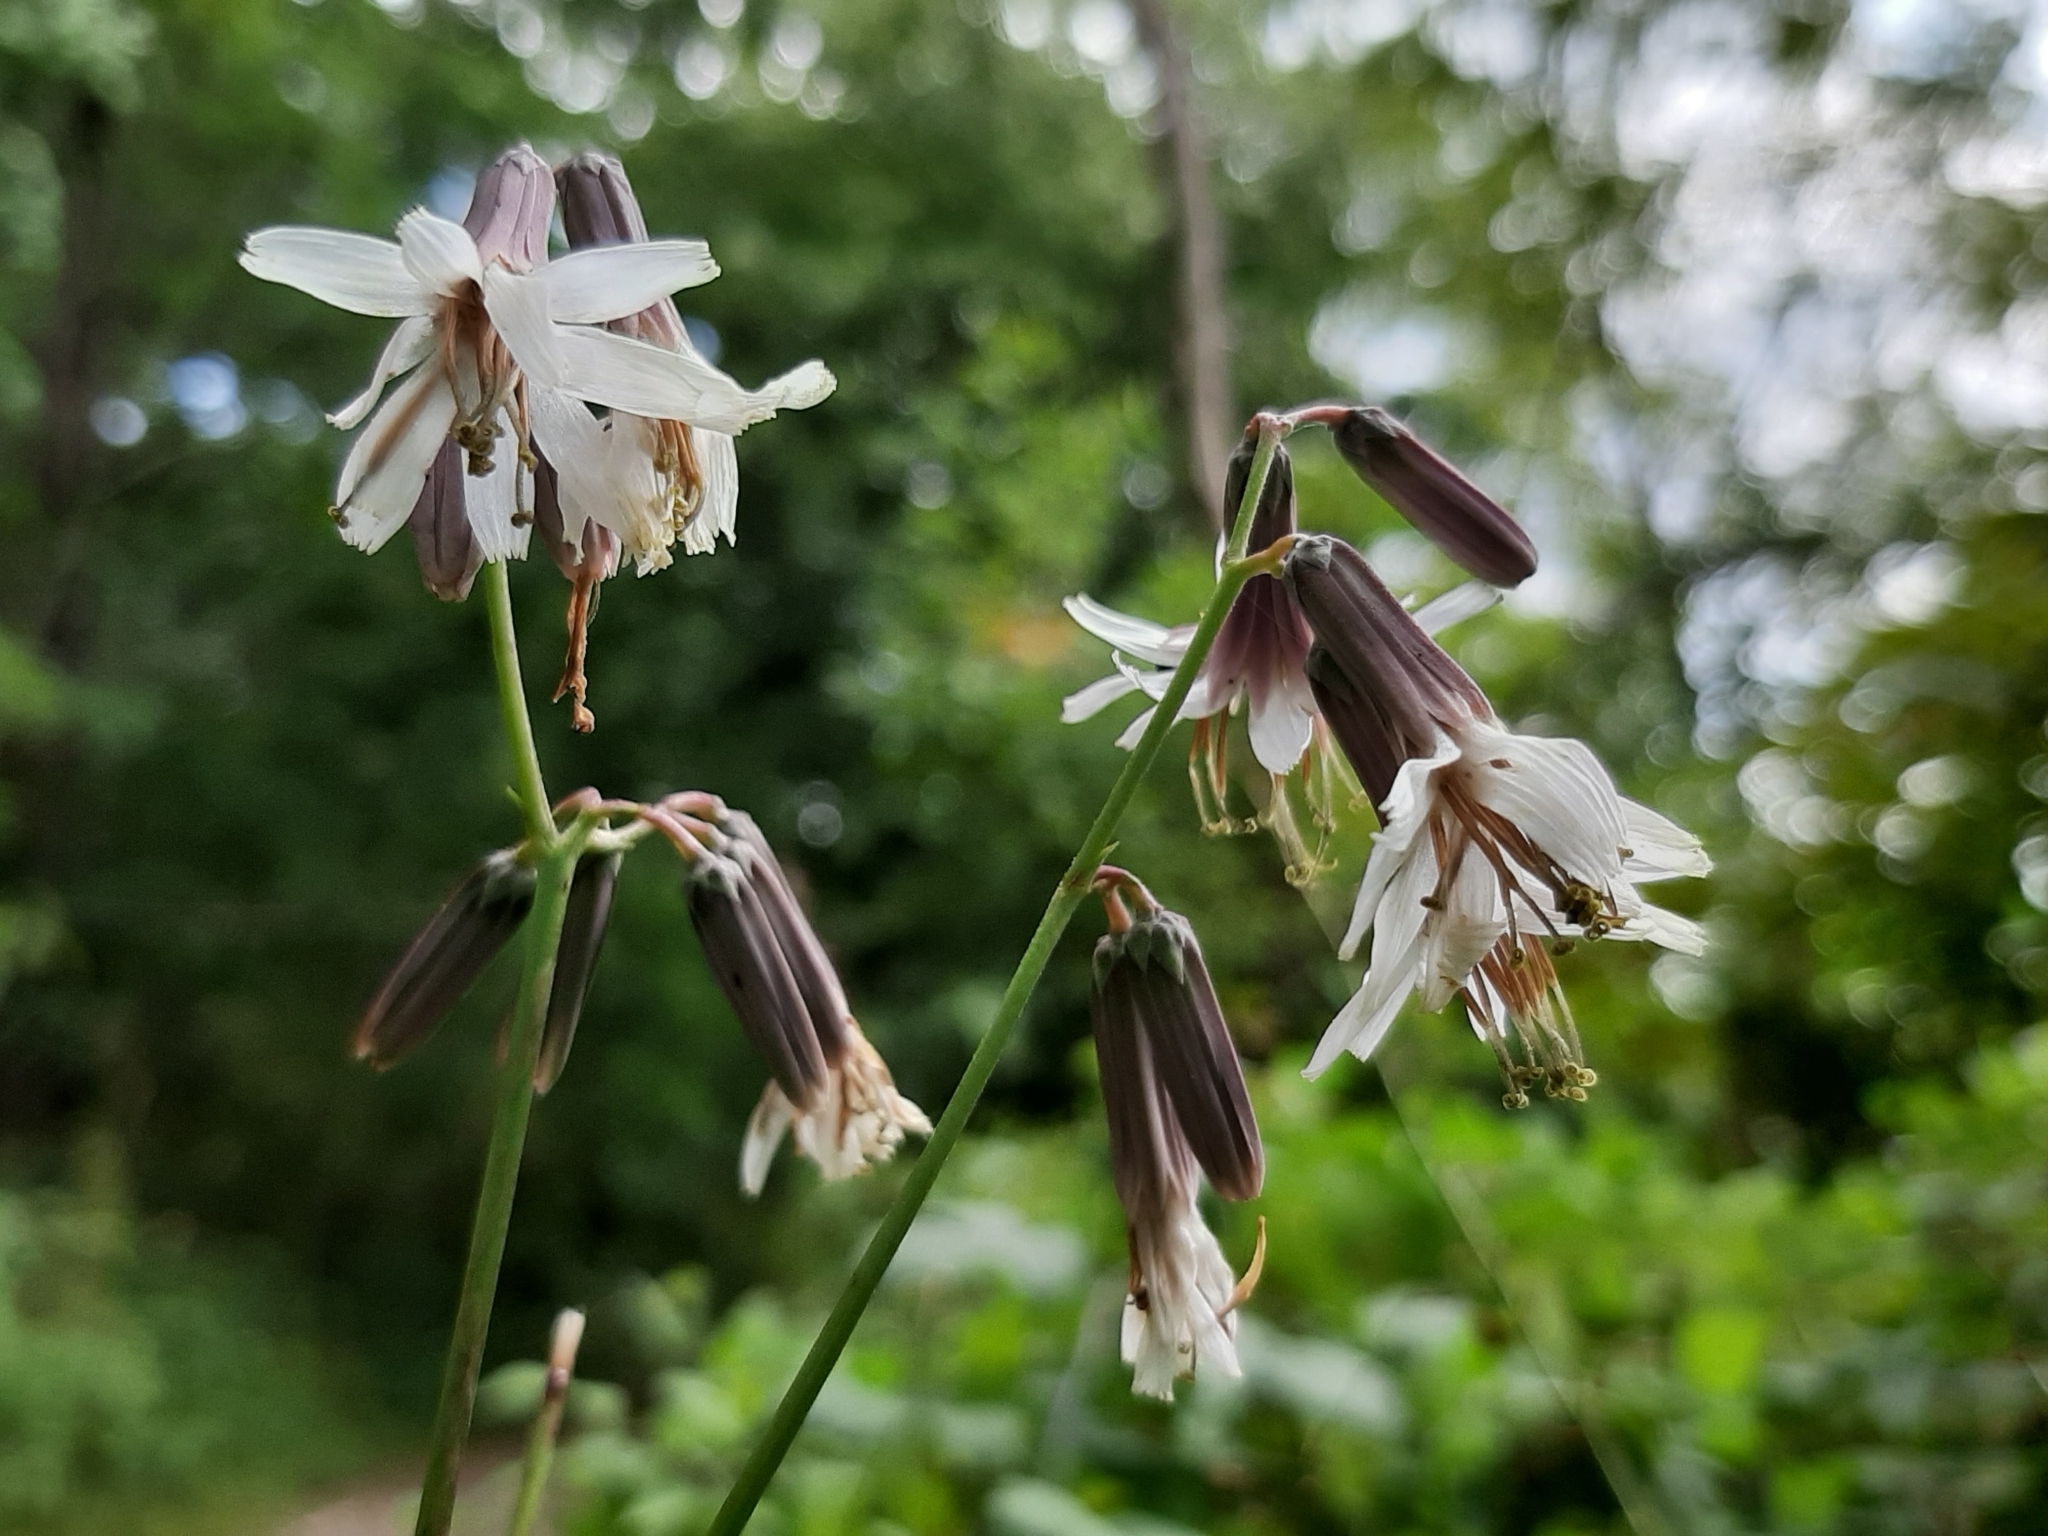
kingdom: Plantae
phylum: Tracheophyta
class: Magnoliopsida
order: Asterales
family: Asteraceae
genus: Nabalus
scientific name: Nabalus albus
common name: White rattlesnakeroot
